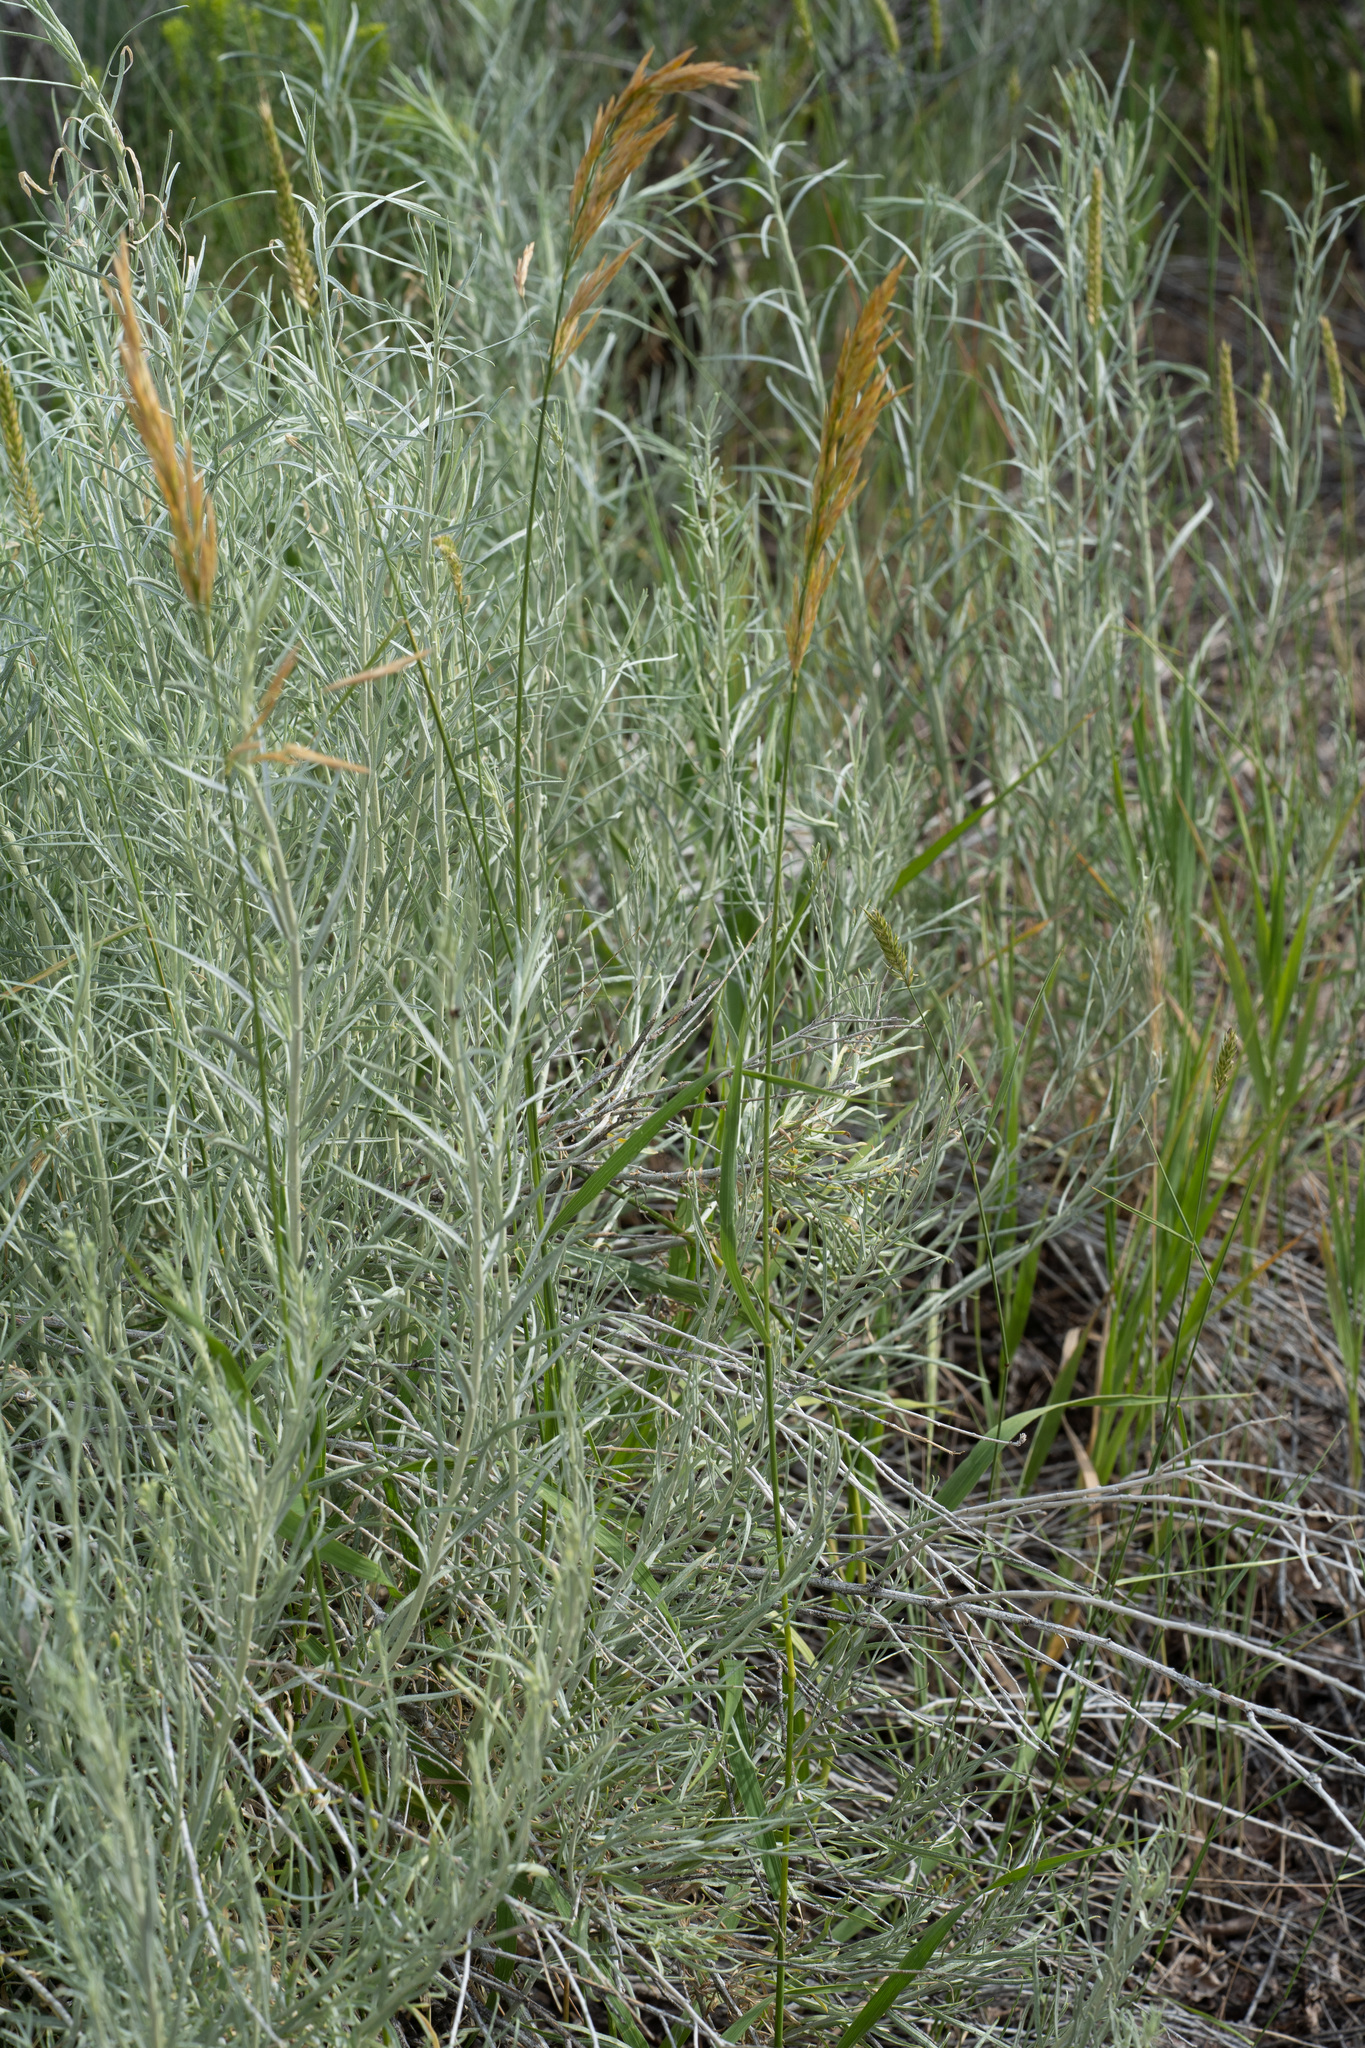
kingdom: Plantae
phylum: Tracheophyta
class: Liliopsida
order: Poales
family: Poaceae
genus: Bromus
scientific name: Bromus inermis
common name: Smooth brome
